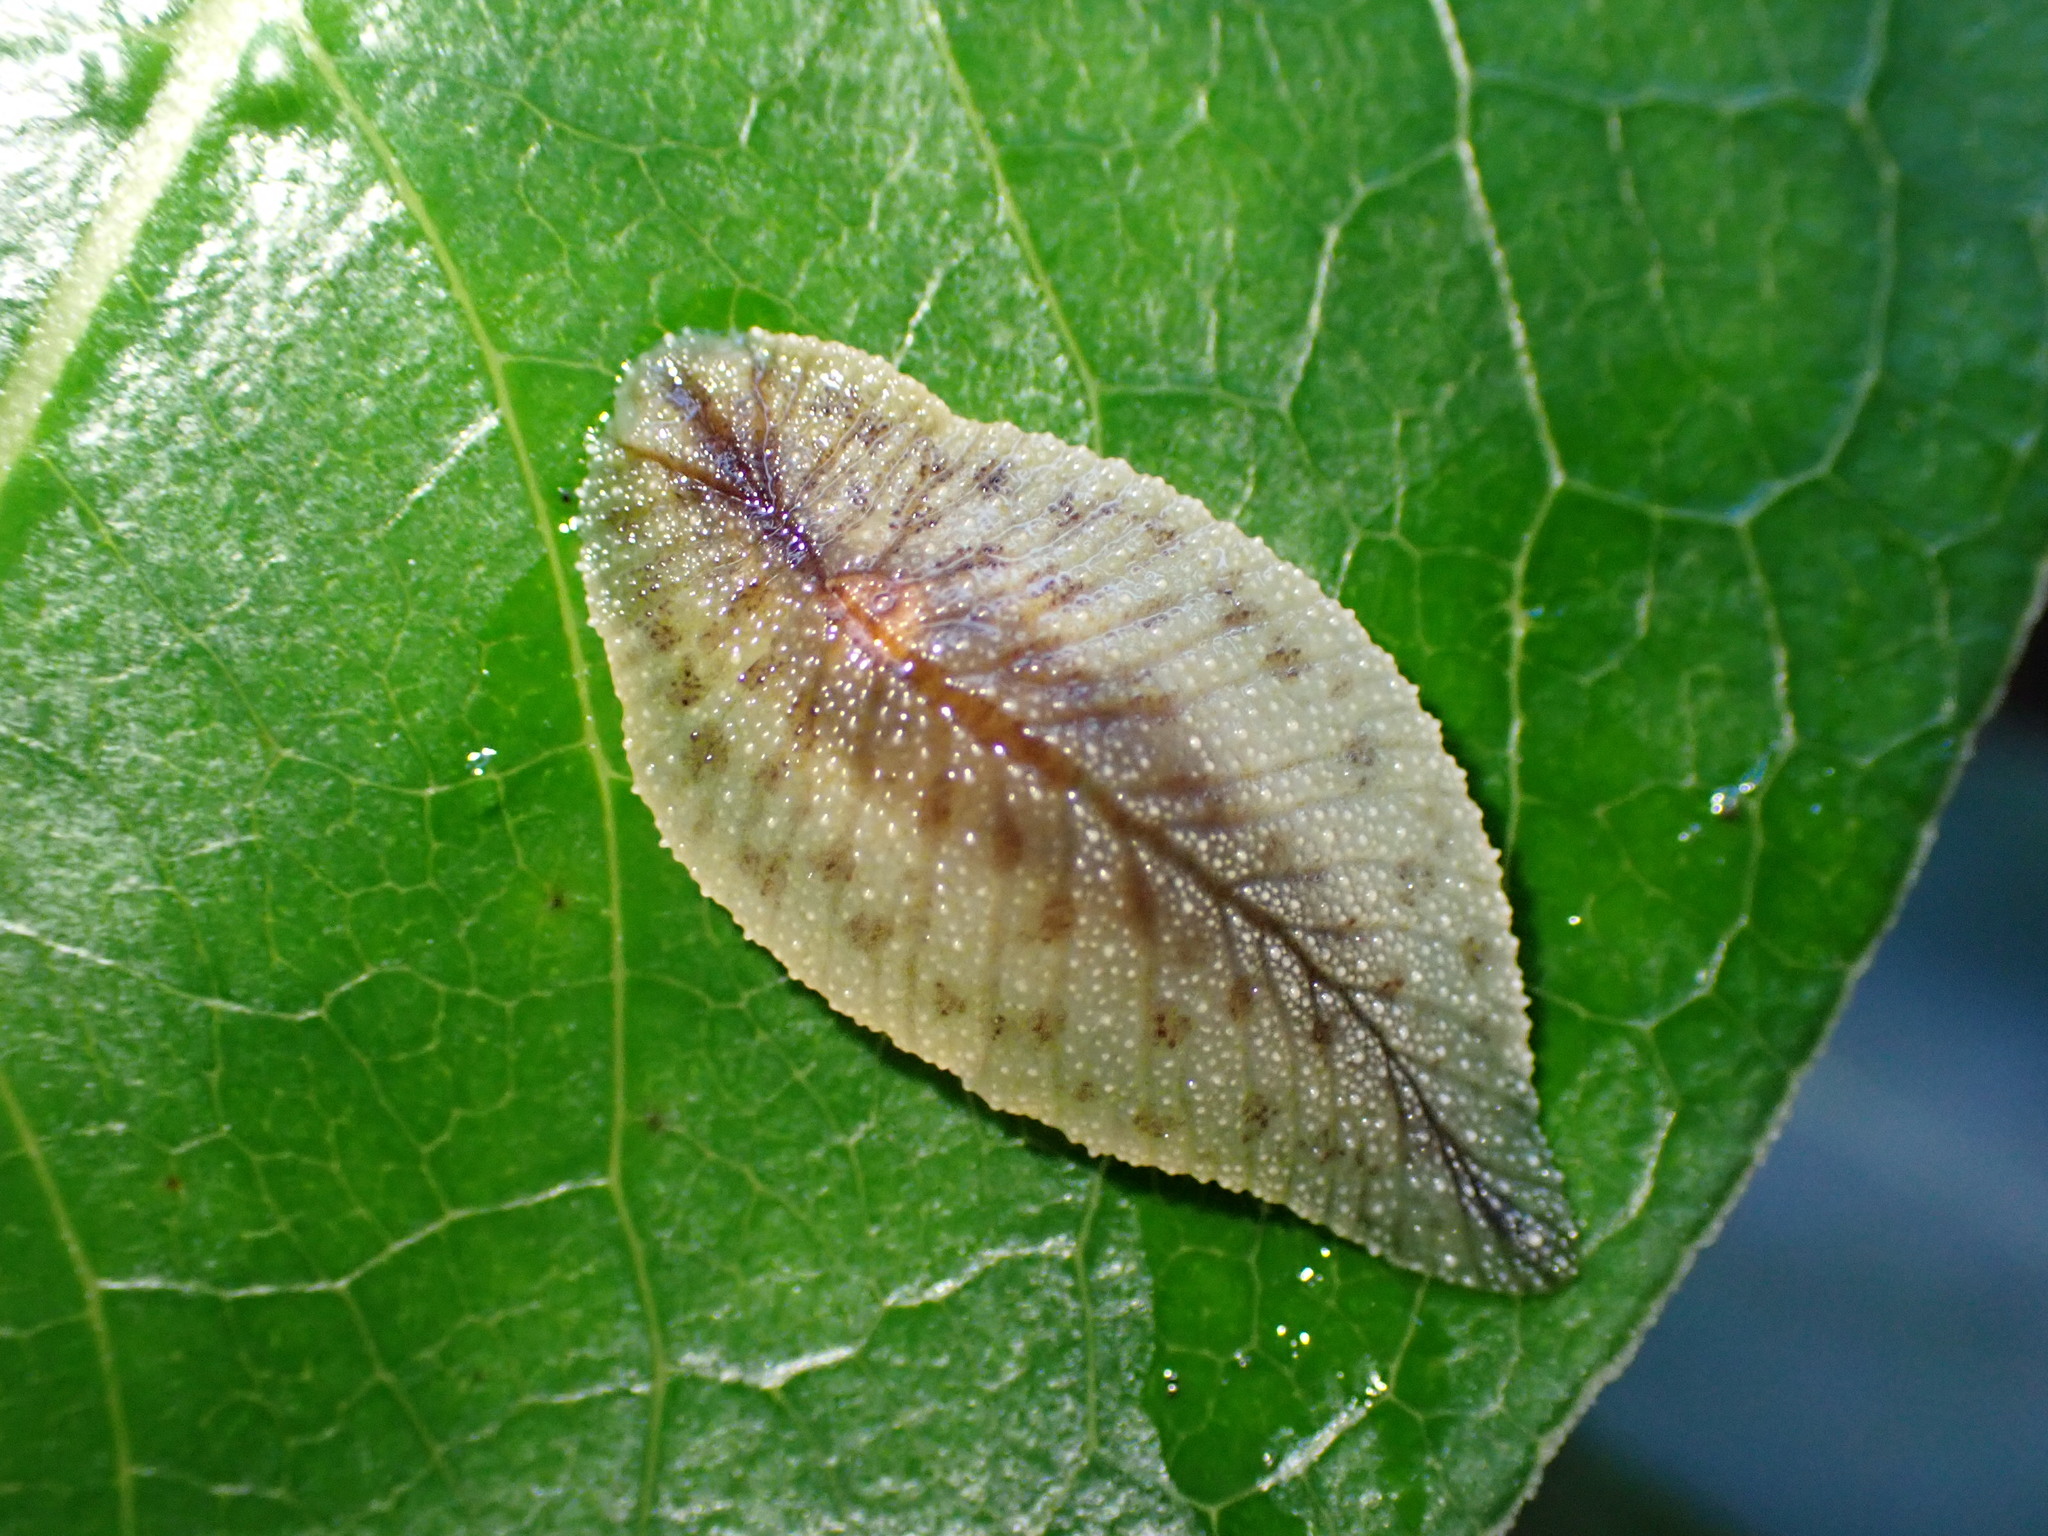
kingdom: Animalia
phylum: Mollusca
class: Gastropoda
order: Stylommatophora
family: Athoracophoridae
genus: Athoracophorus
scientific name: Athoracophorus
